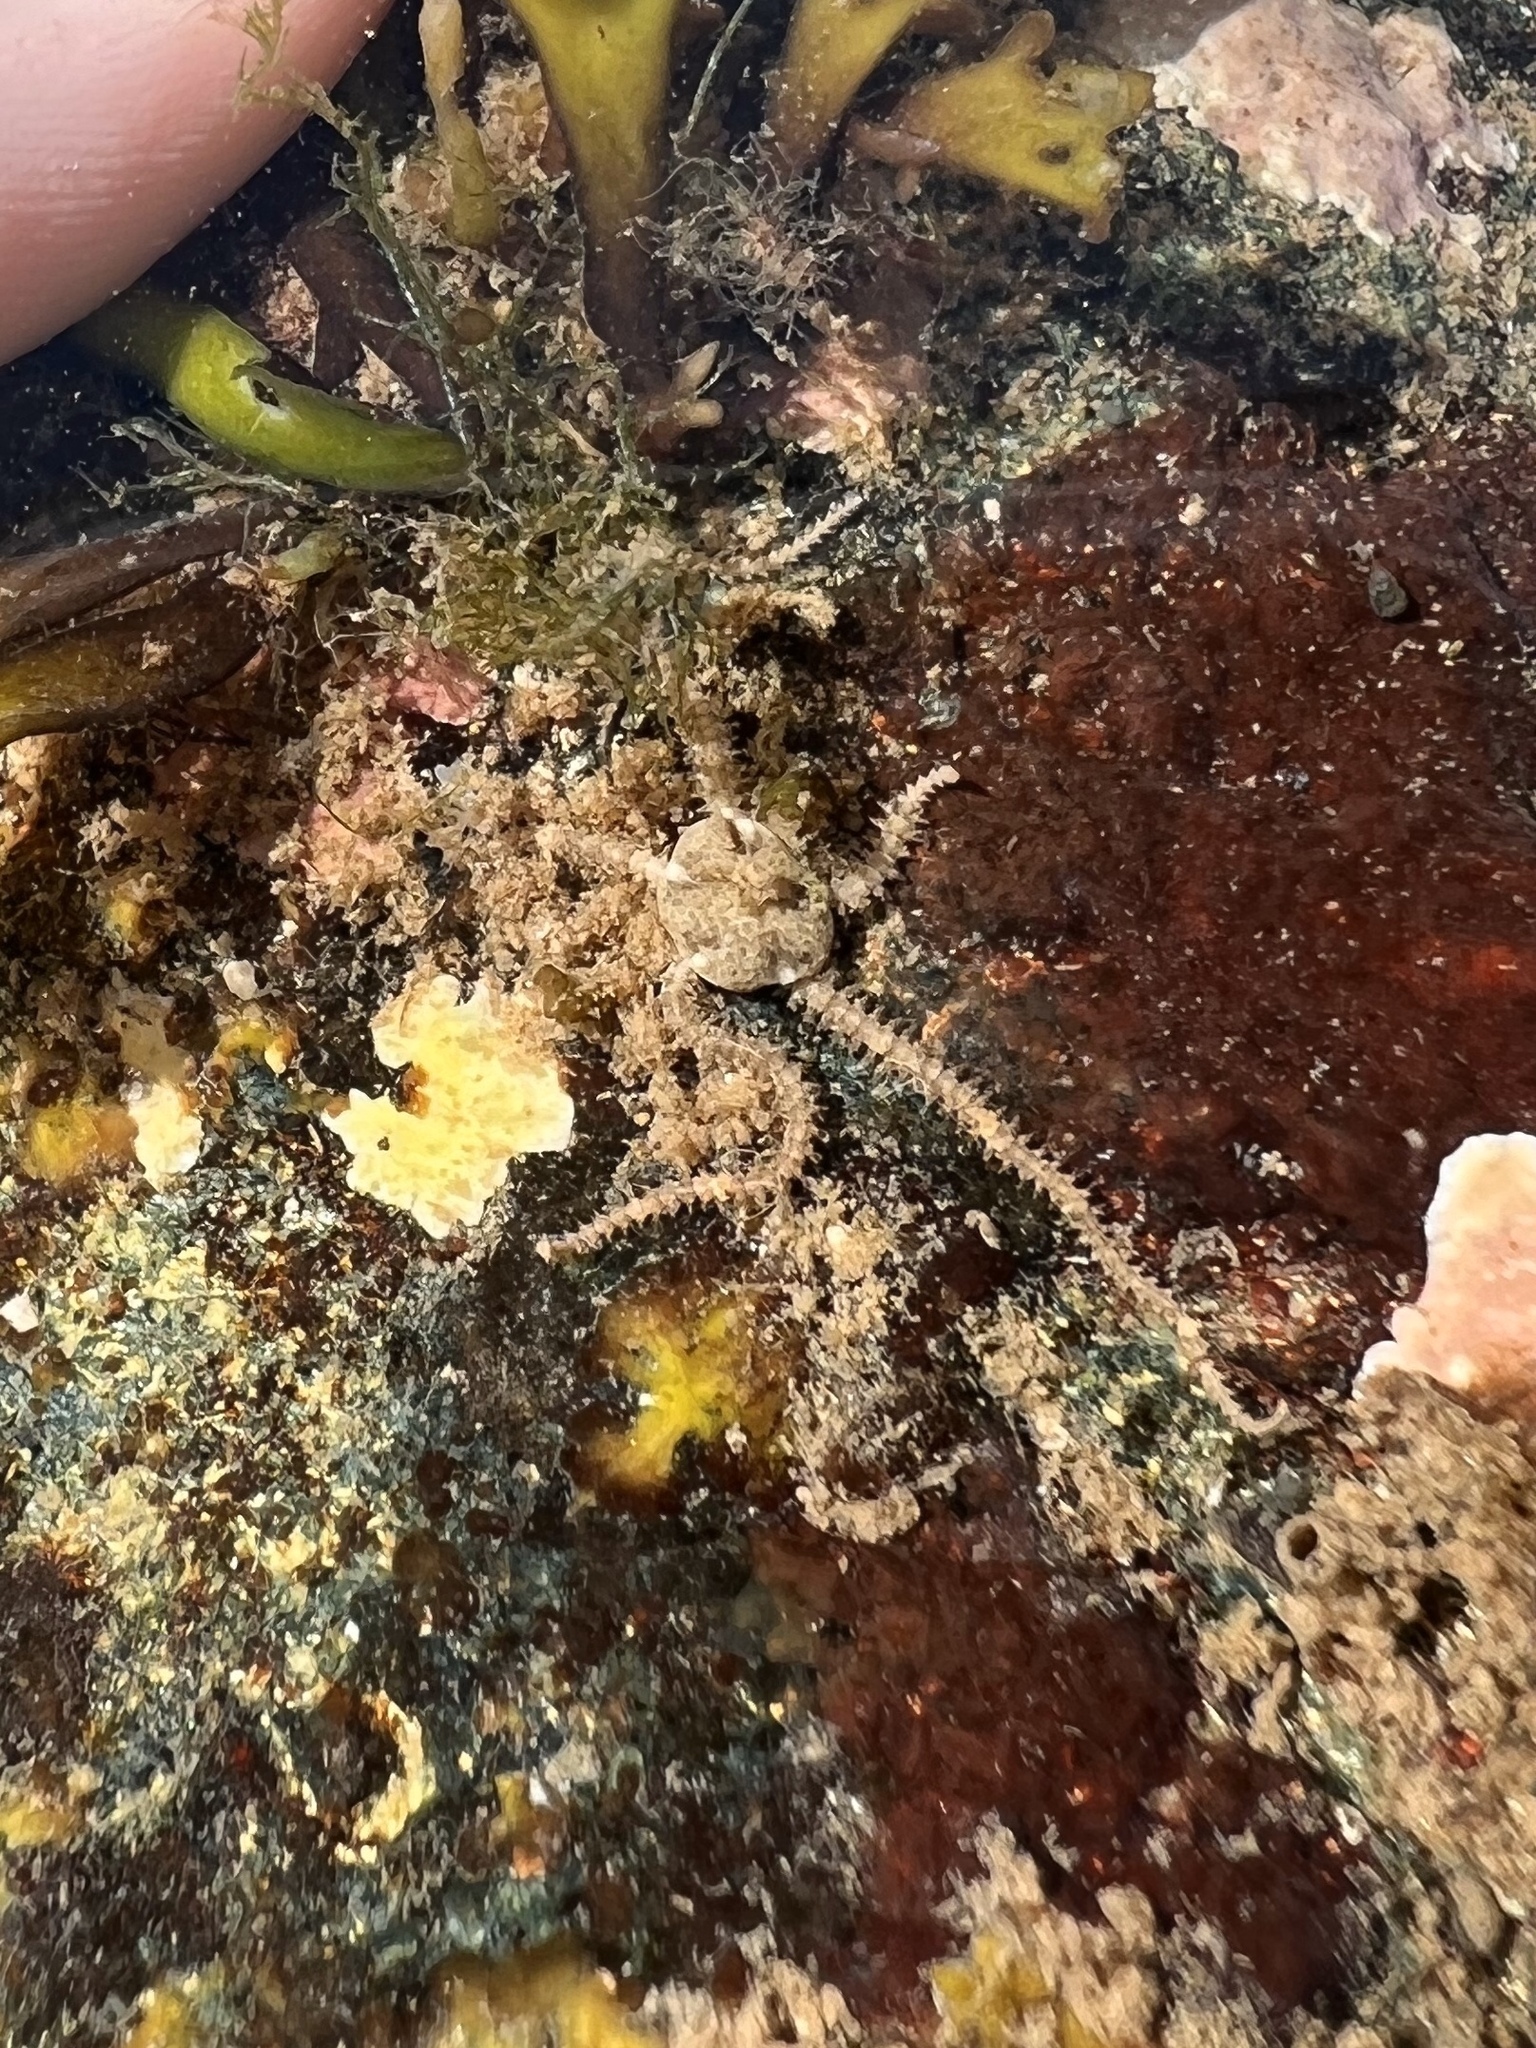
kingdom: Animalia
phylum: Echinodermata
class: Ophiuroidea
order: Amphilepidida
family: Amphiuridae
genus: Amphipholis
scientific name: Amphipholis squamata
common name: Brooding snake star
